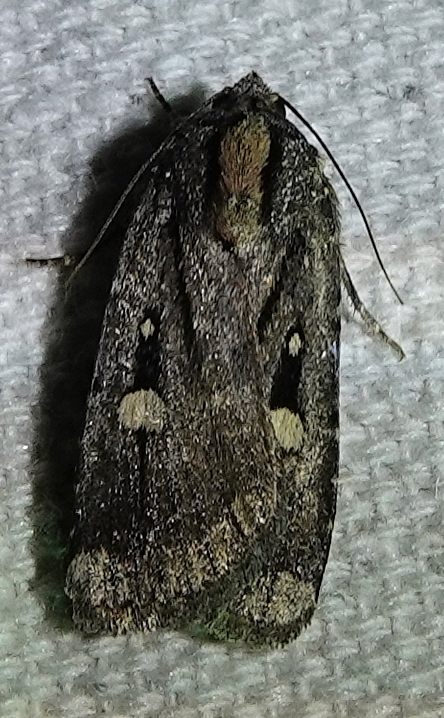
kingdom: Animalia
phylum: Arthropoda
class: Insecta
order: Lepidoptera
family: Noctuidae
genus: Abagrotis
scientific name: Abagrotis mirabilis
